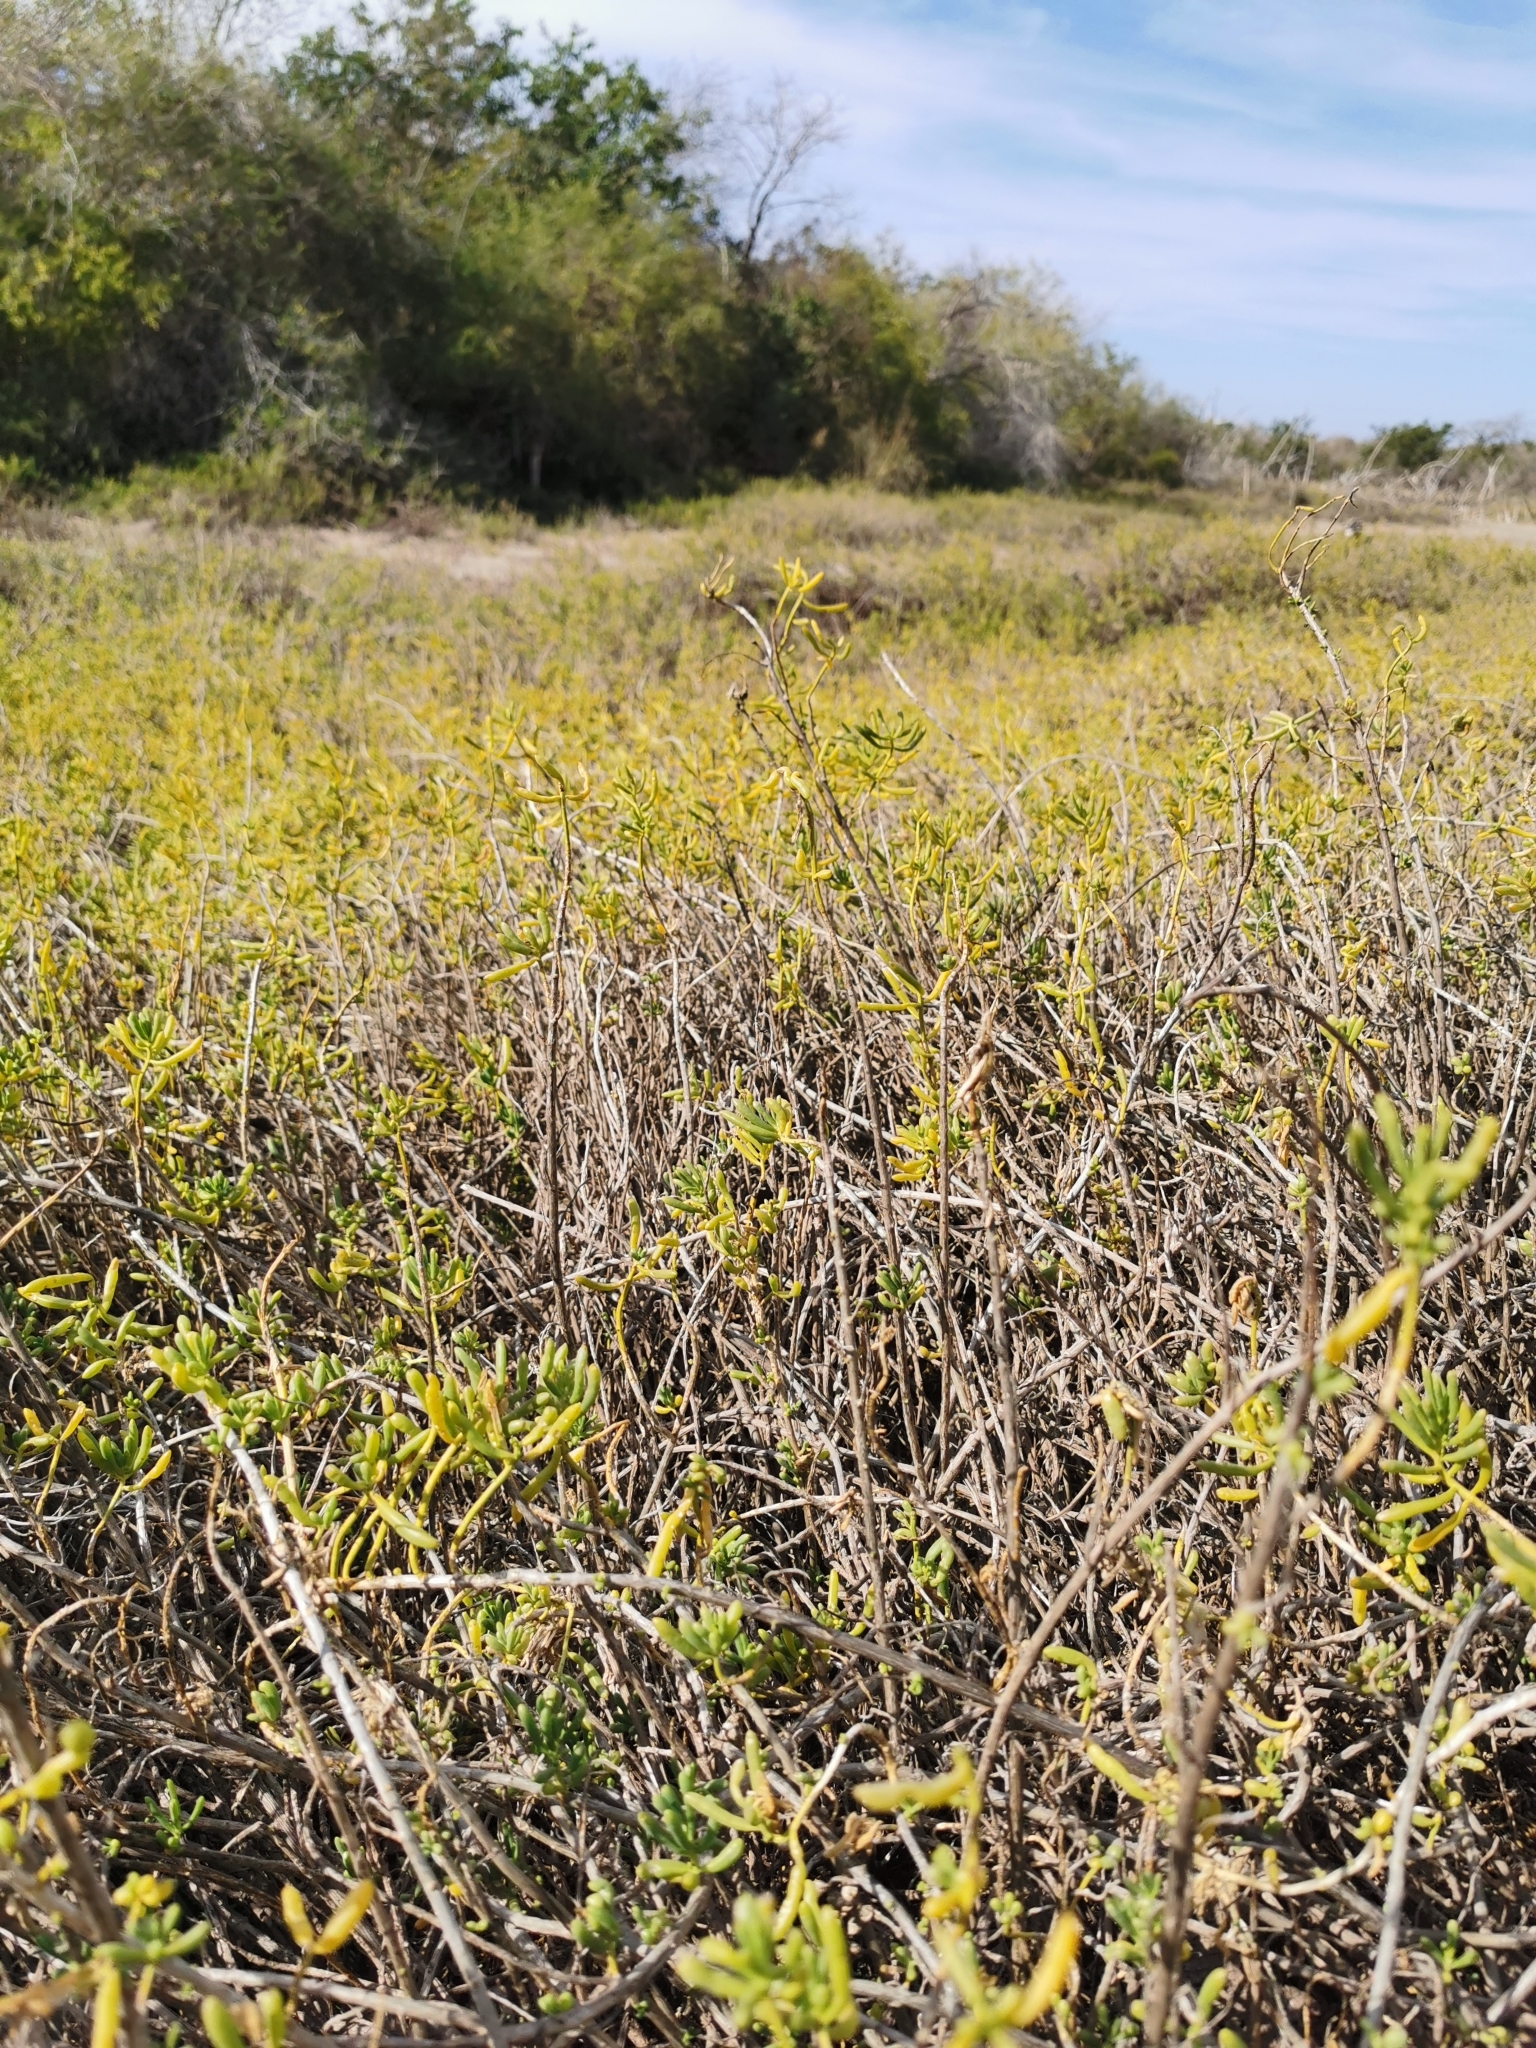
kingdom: Plantae
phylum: Tracheophyta
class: Magnoliopsida
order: Brassicales
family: Bataceae
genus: Batis
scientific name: Batis maritima
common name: Turtleweed
